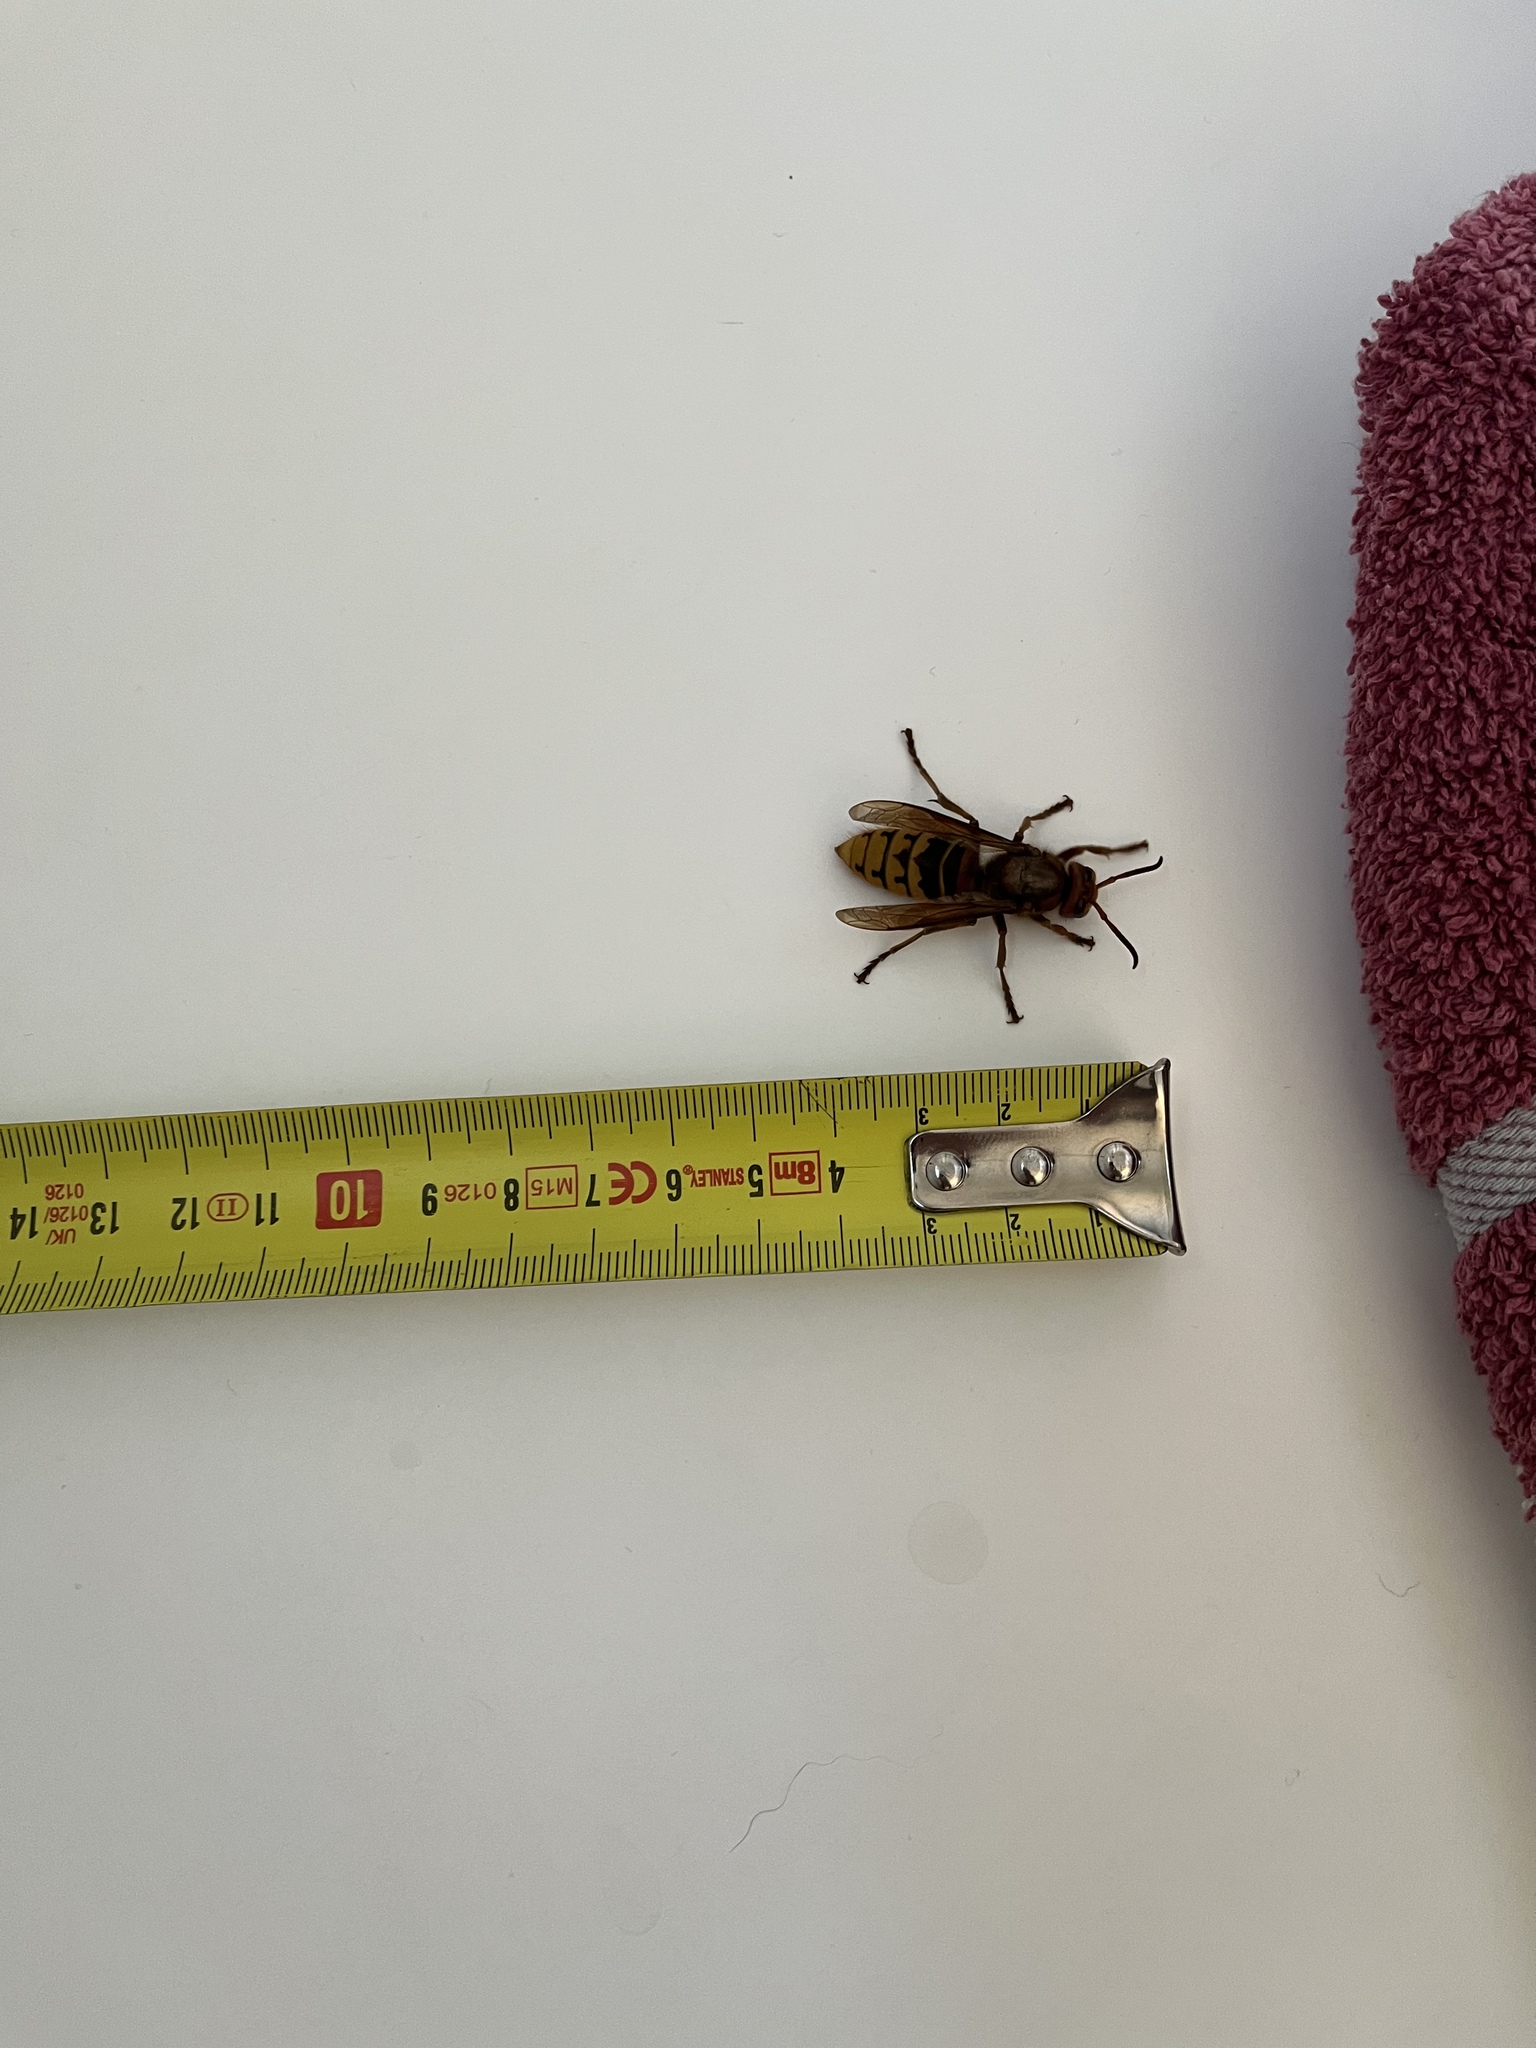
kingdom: Animalia
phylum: Arthropoda
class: Insecta
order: Hymenoptera
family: Vespidae
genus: Vespa
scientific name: Vespa crabro
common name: Hornet
